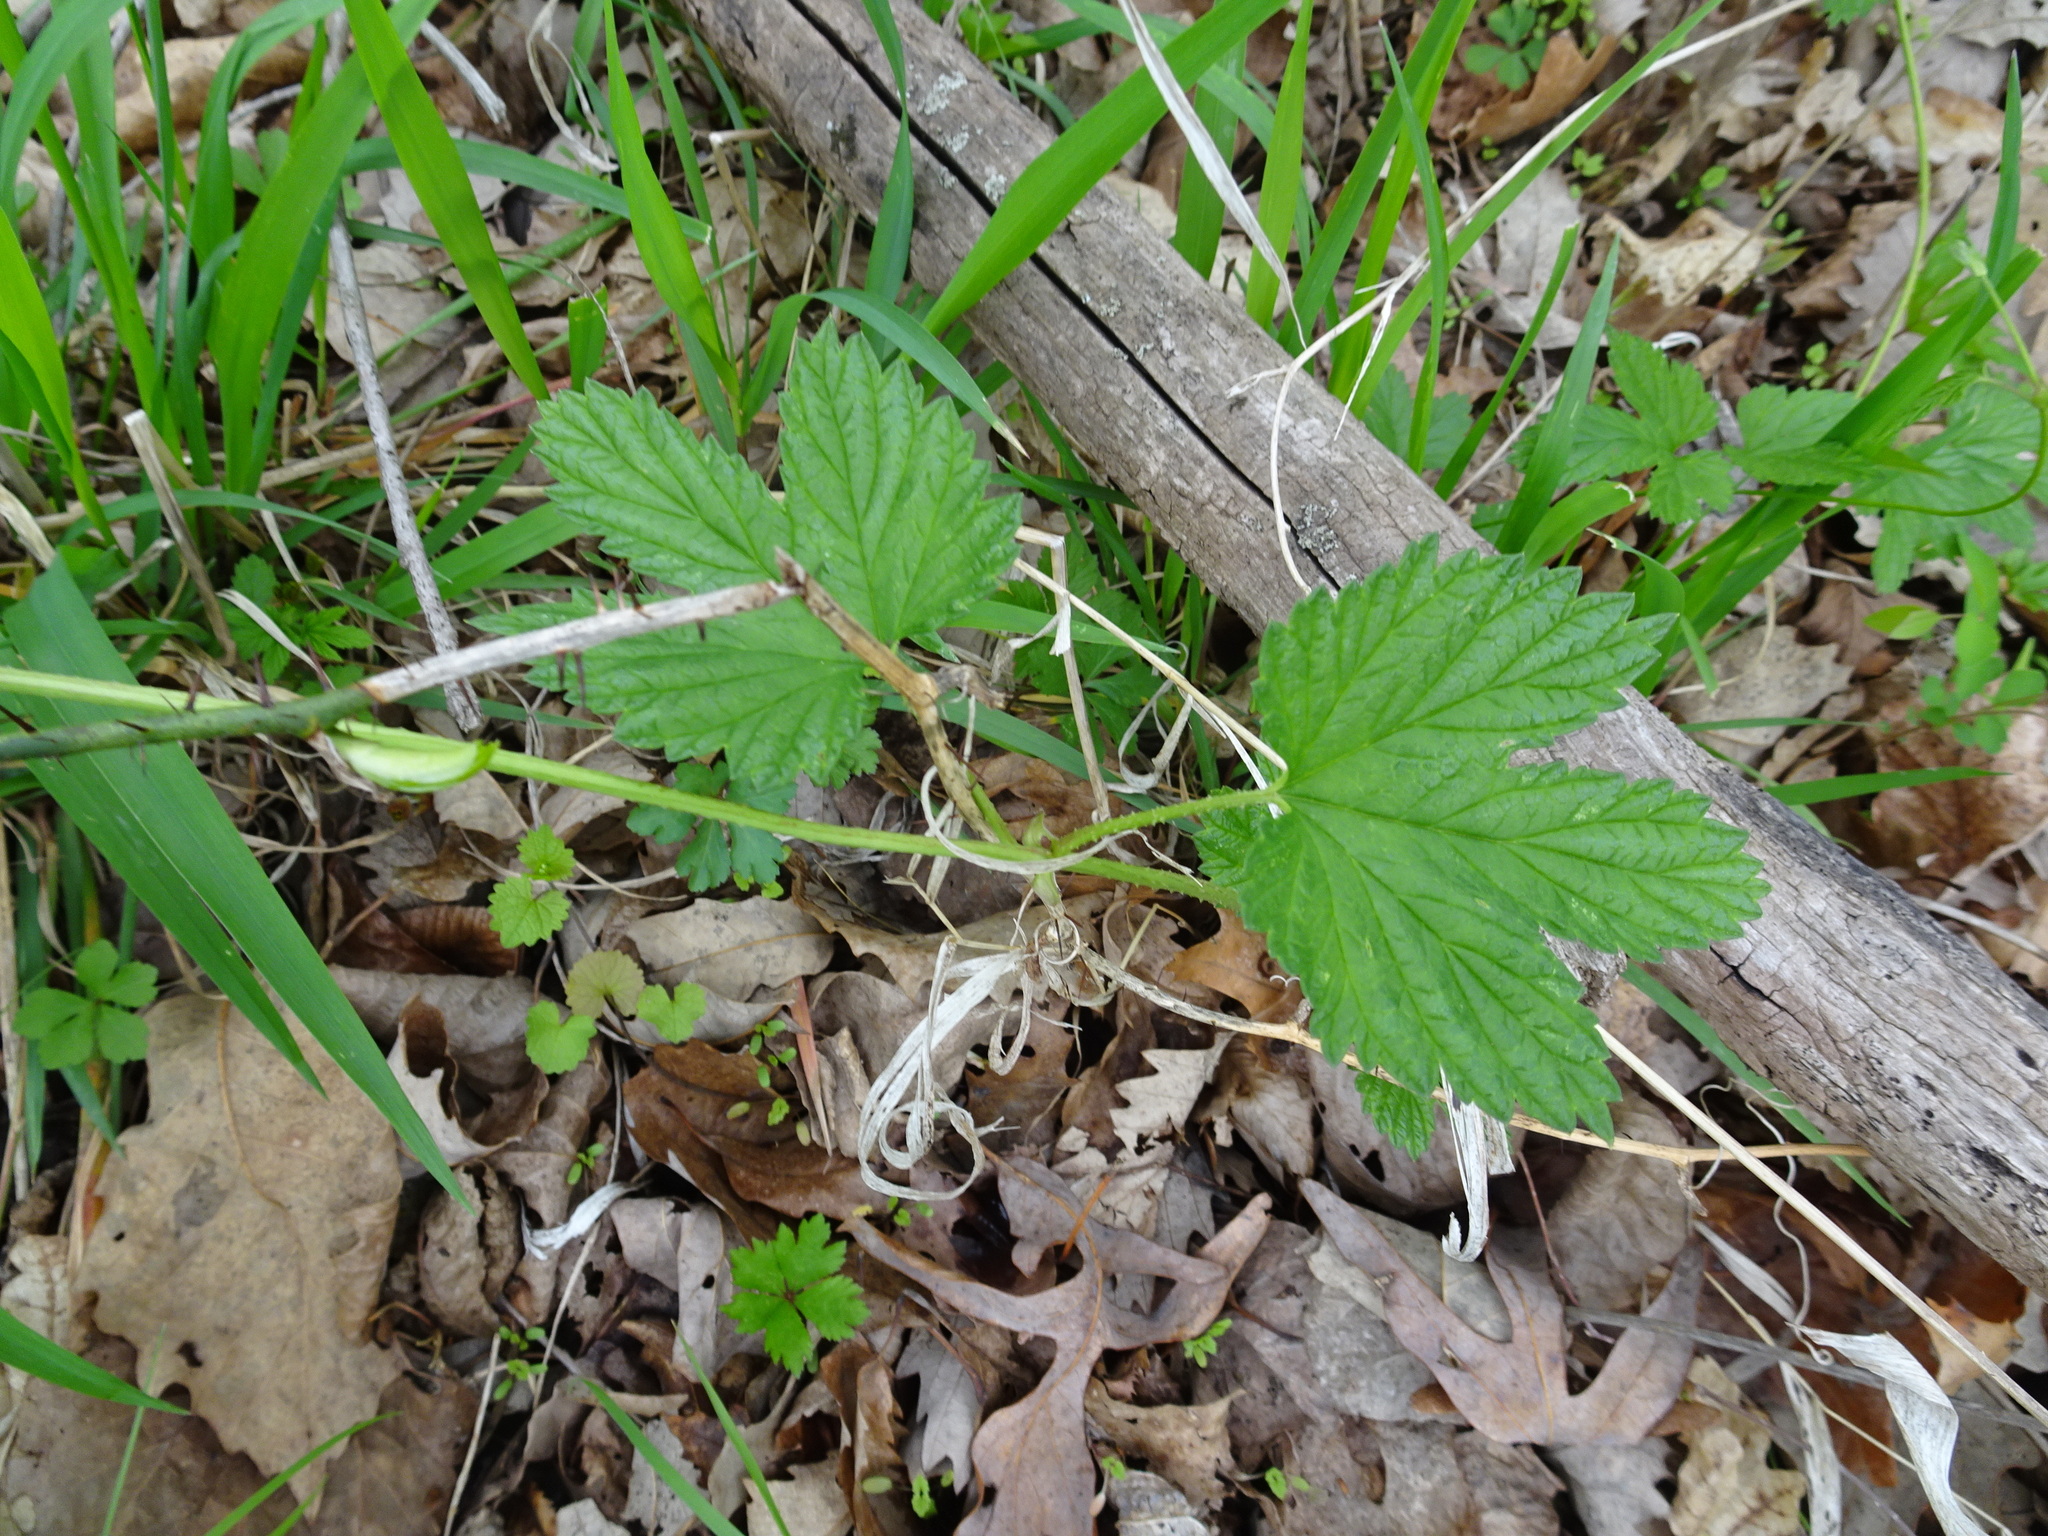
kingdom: Plantae
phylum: Tracheophyta
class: Magnoliopsida
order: Rosales
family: Cannabaceae
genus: Humulus
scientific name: Humulus lupulus
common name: Hop
